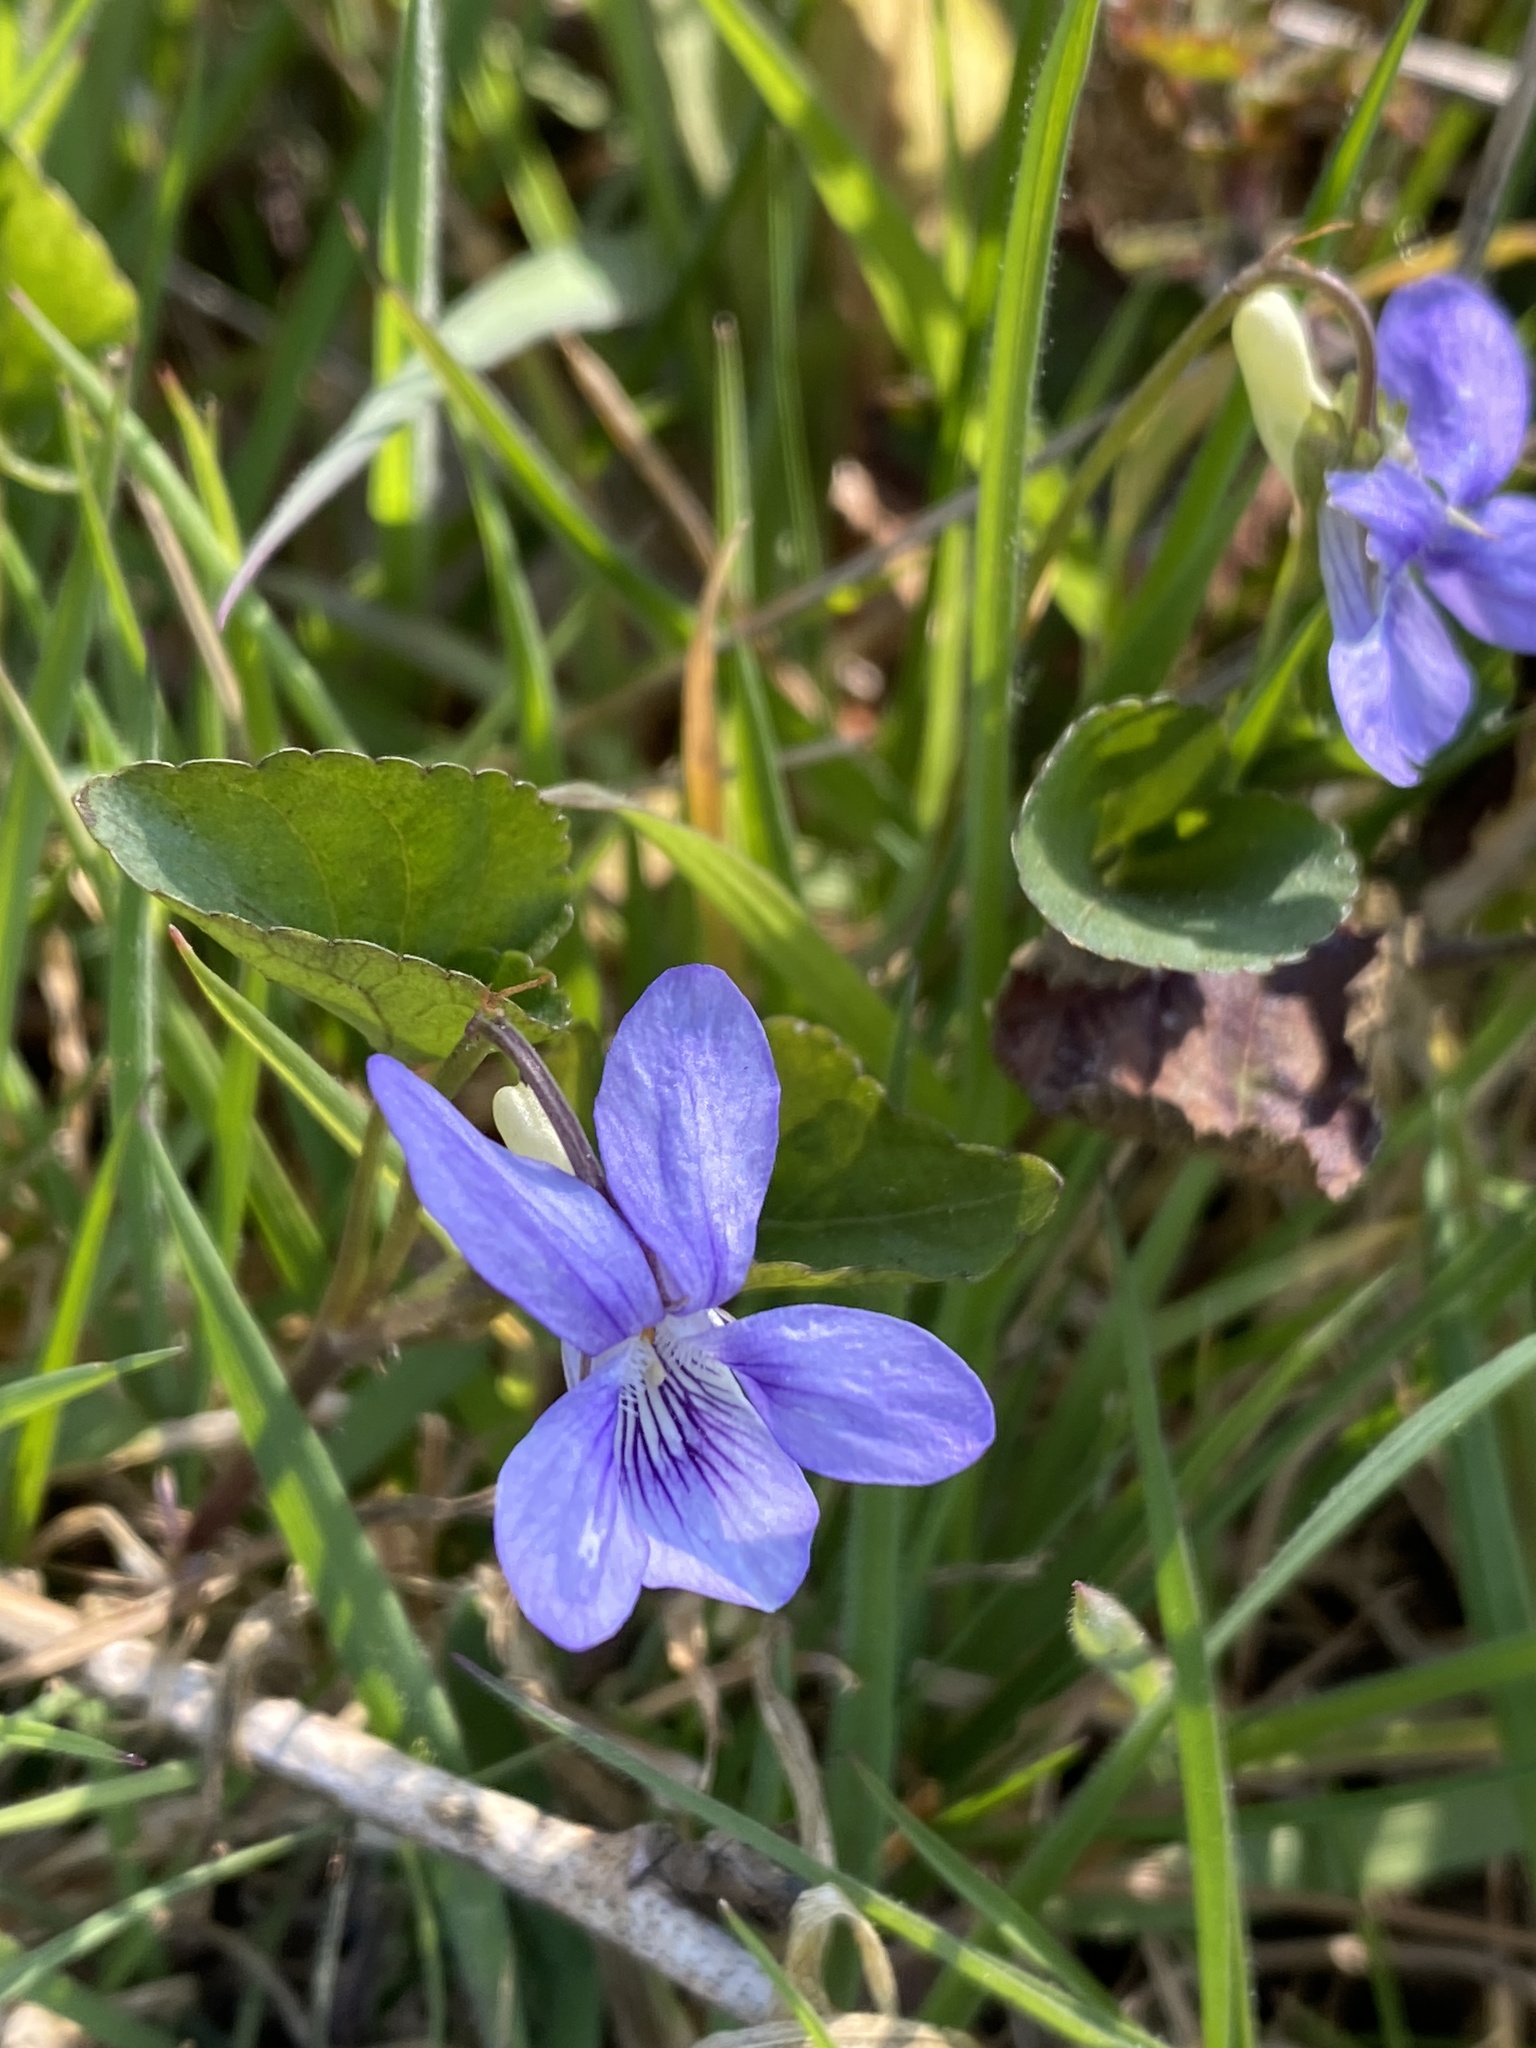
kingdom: Plantae
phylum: Tracheophyta
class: Magnoliopsida
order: Malpighiales
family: Violaceae
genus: Viola
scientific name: Viola riviniana
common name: Common dog-violet
